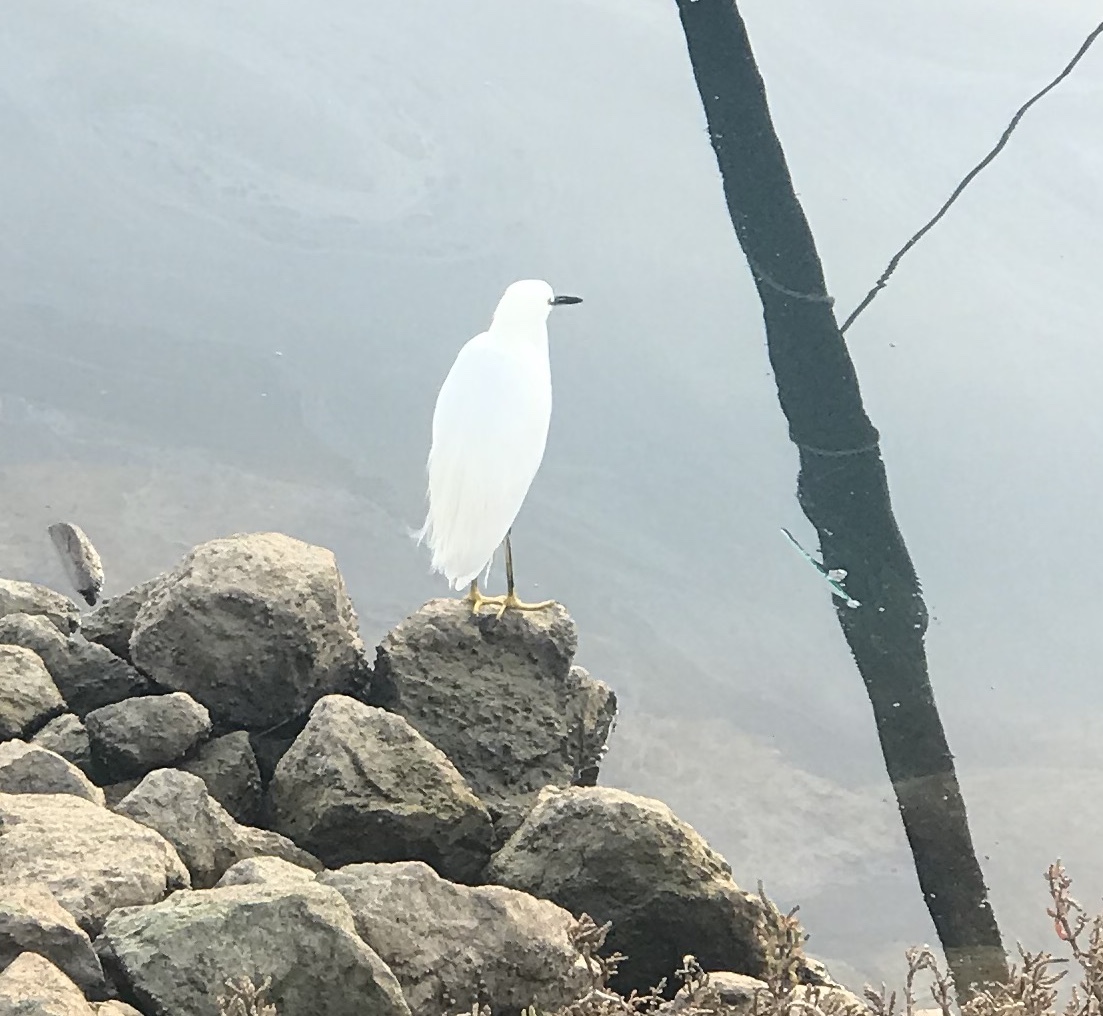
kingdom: Animalia
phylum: Chordata
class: Aves
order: Pelecaniformes
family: Ardeidae
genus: Egretta
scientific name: Egretta thula
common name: Snowy egret
